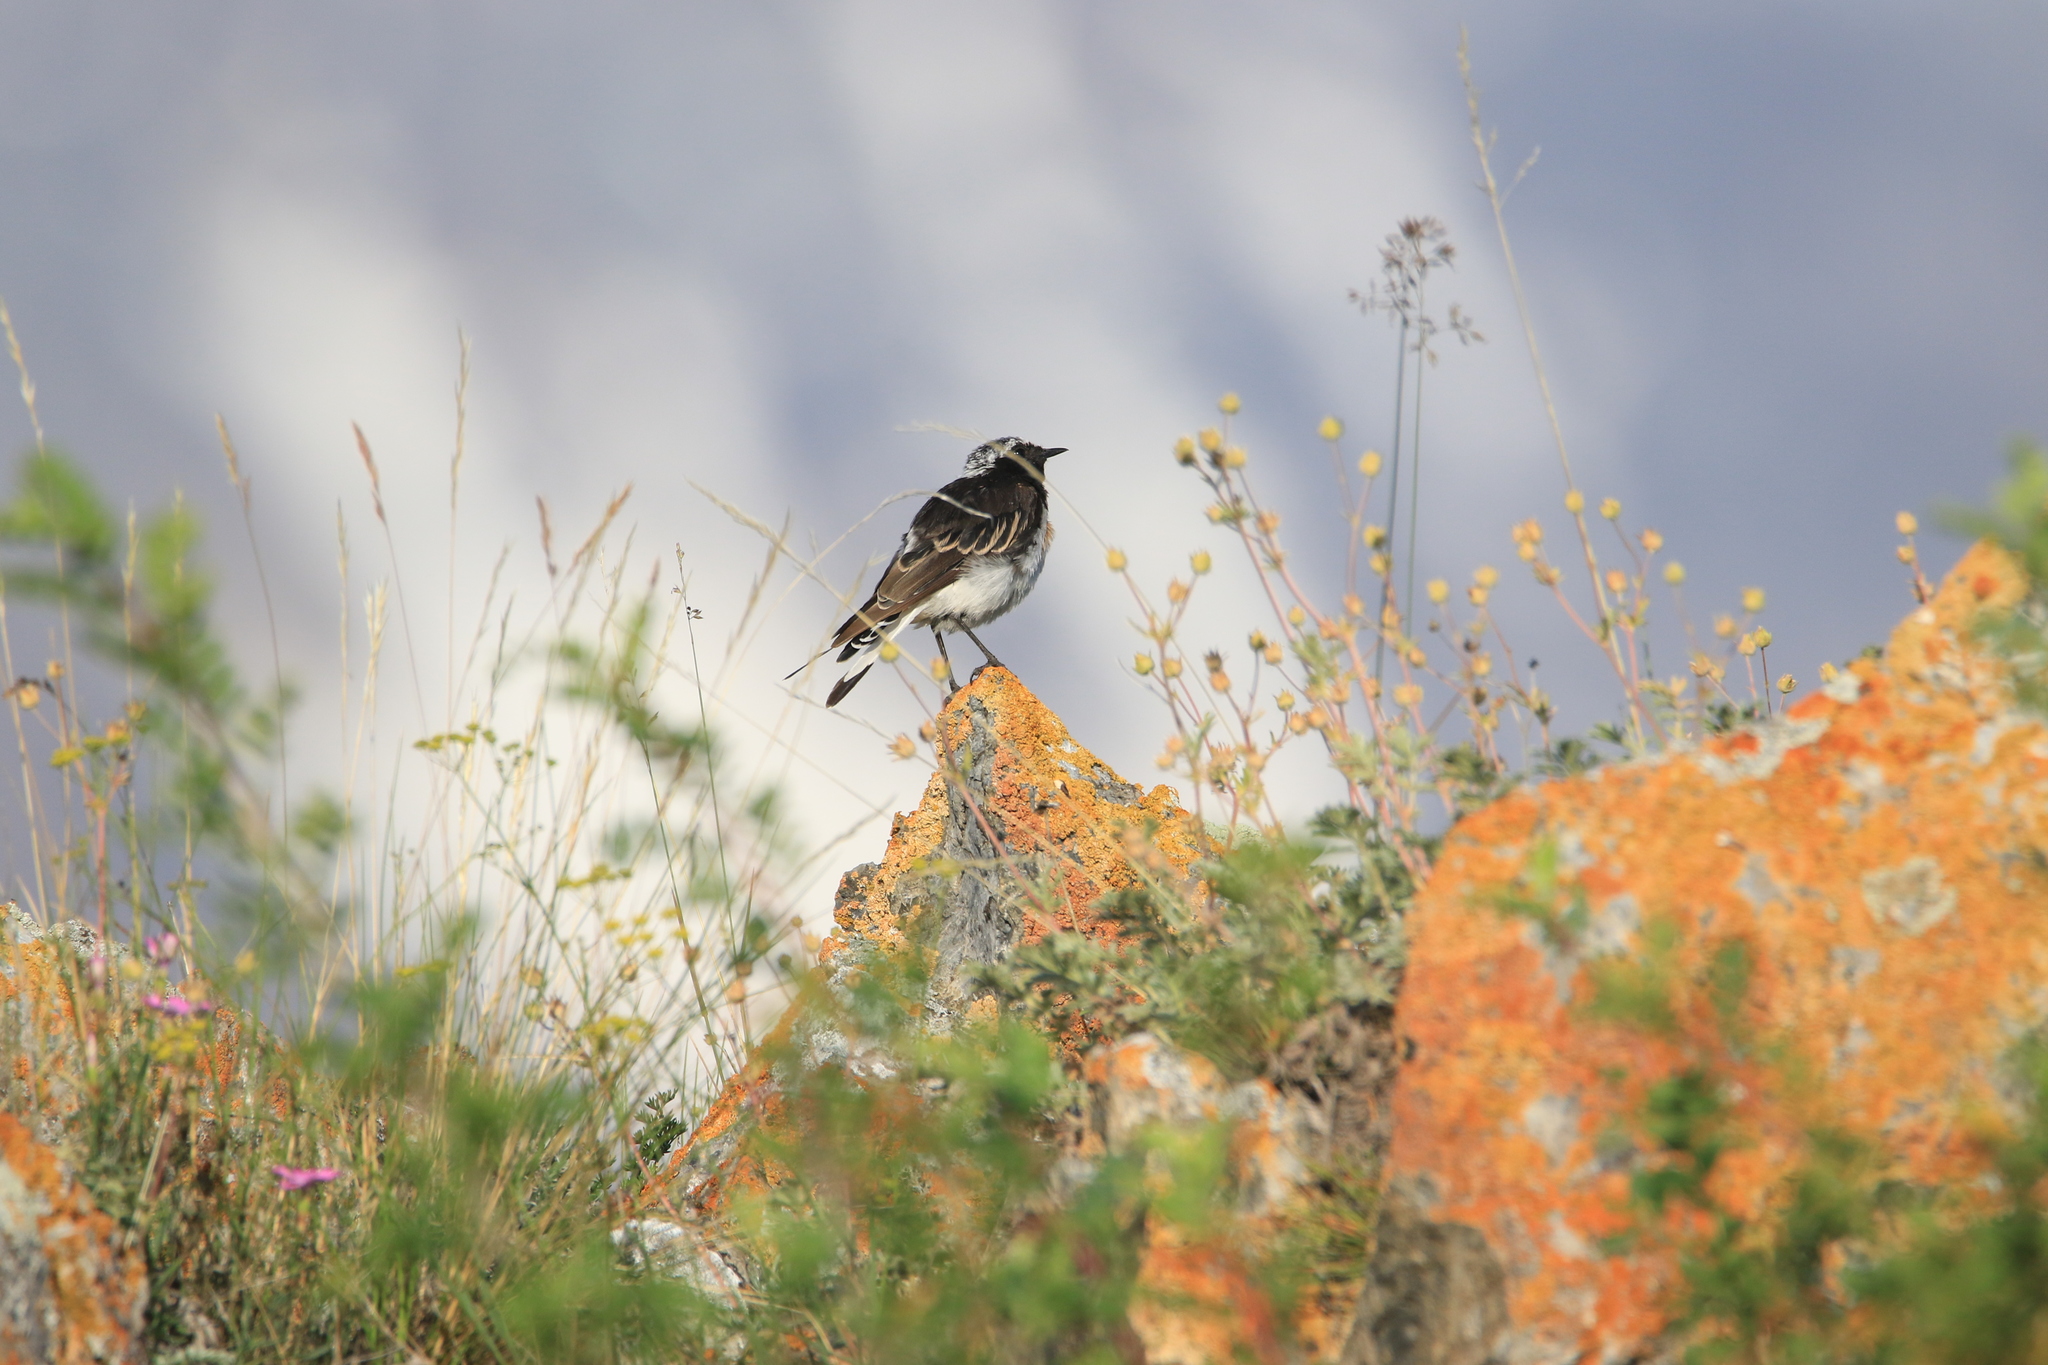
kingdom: Animalia
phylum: Chordata
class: Aves
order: Passeriformes
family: Muscicapidae
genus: Oenanthe
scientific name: Oenanthe pleschanka
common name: Pied wheatear
